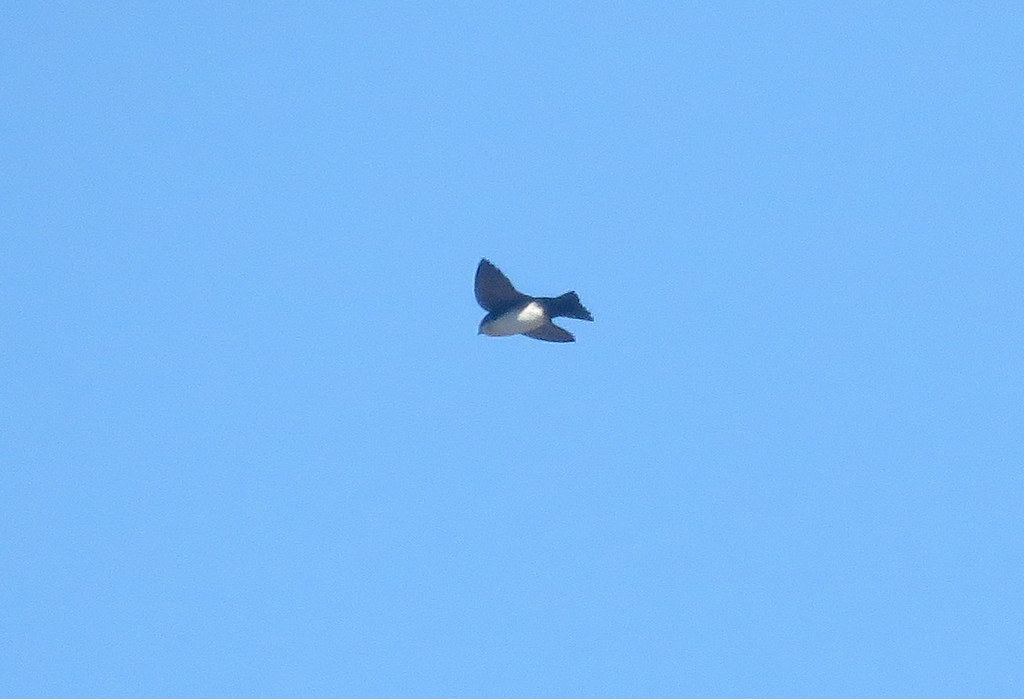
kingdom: Animalia
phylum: Chordata
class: Aves
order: Passeriformes
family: Hirundinidae
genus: Notiochelidon
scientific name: Notiochelidon cyanoleuca
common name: Blue-and-white swallow
